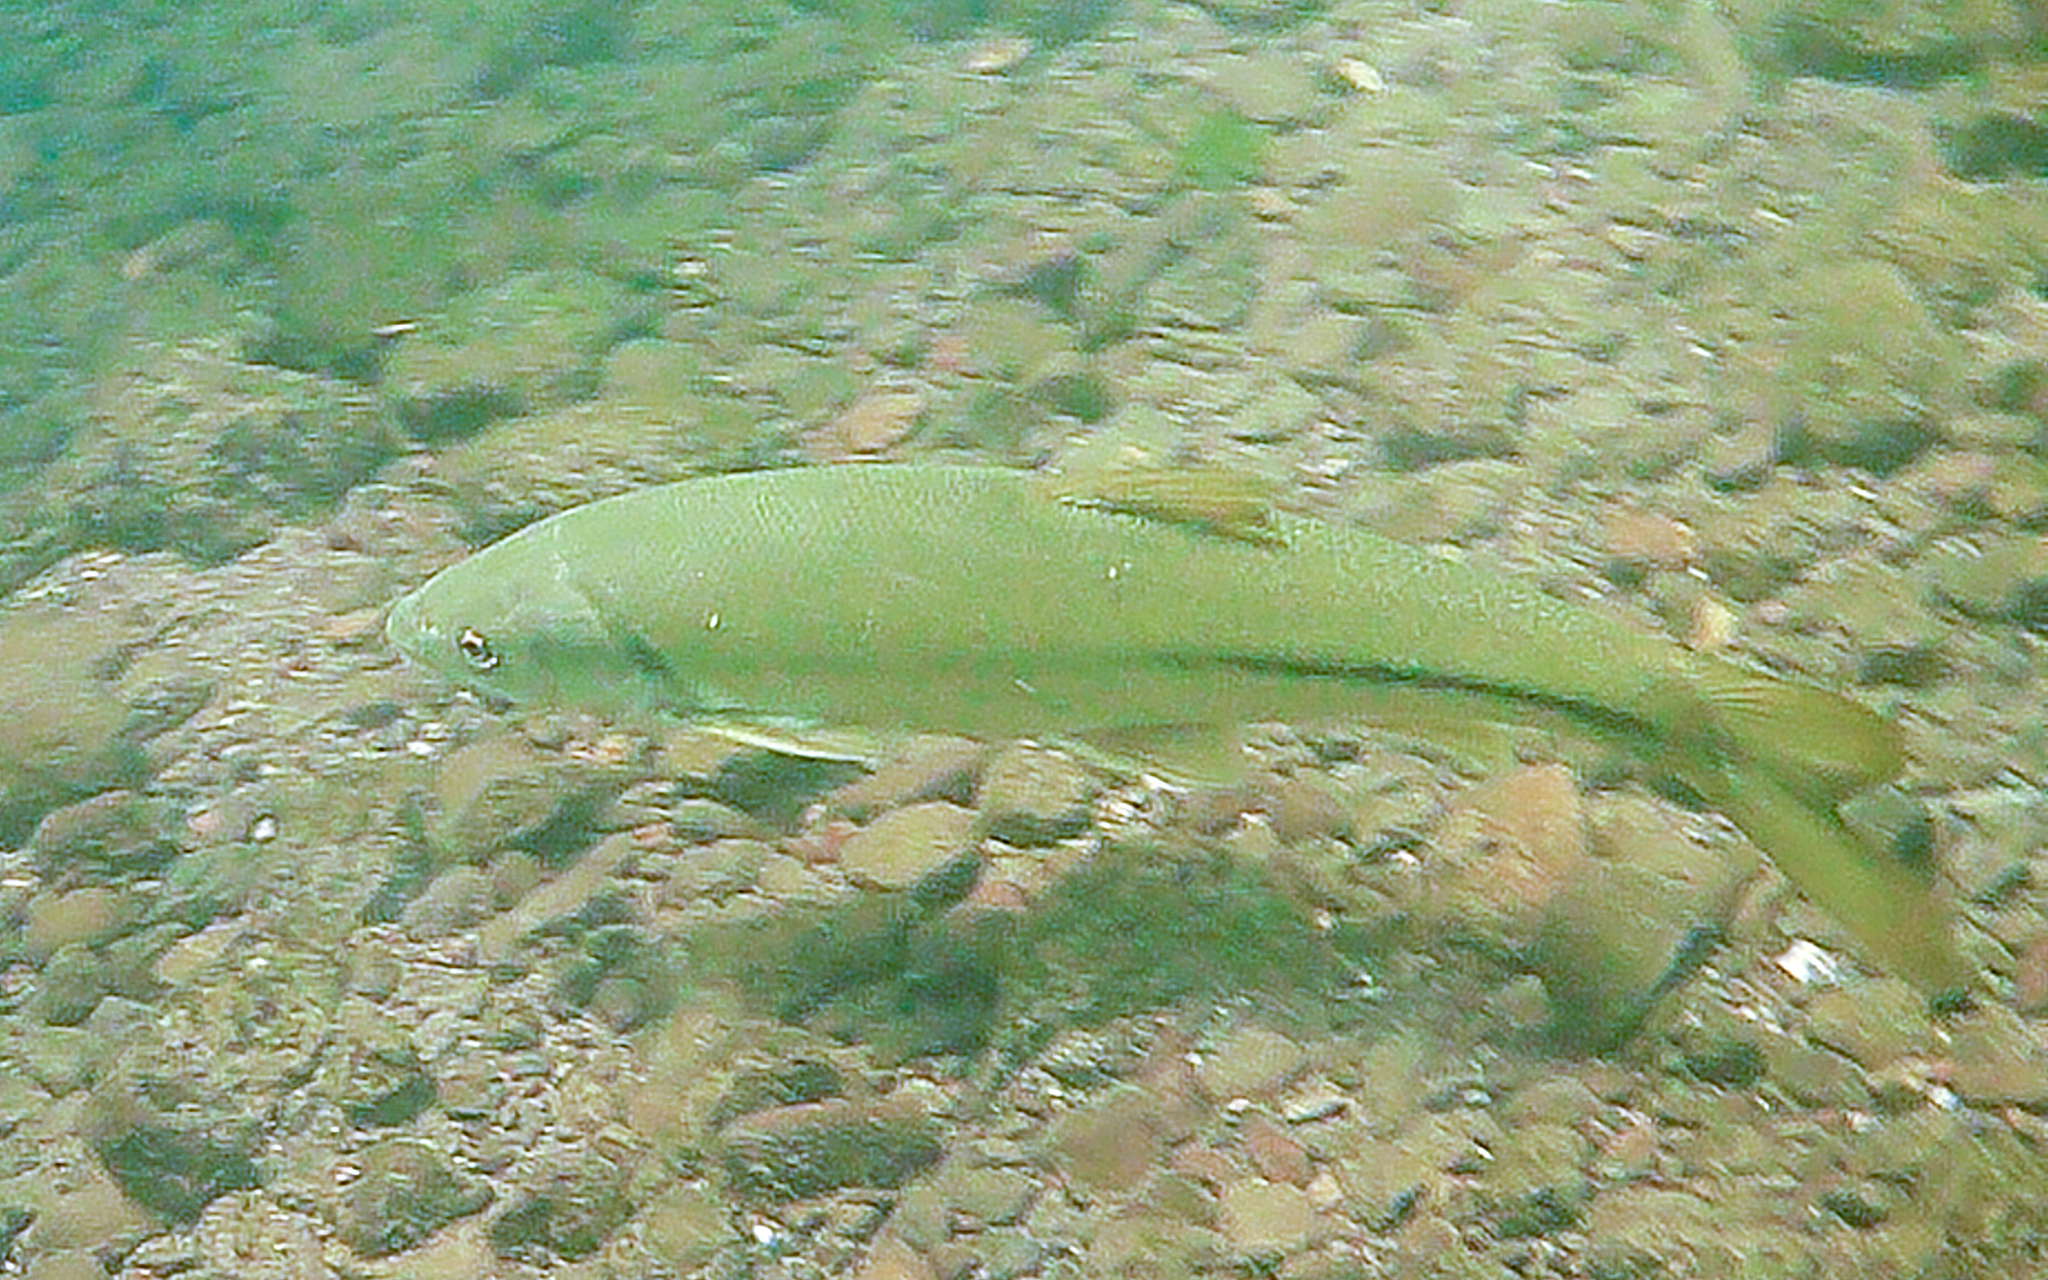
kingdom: Animalia
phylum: Chordata
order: Cypriniformes
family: Cyprinidae
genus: Mylopharodon
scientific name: Mylopharodon conocephalus
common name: Hardhead
